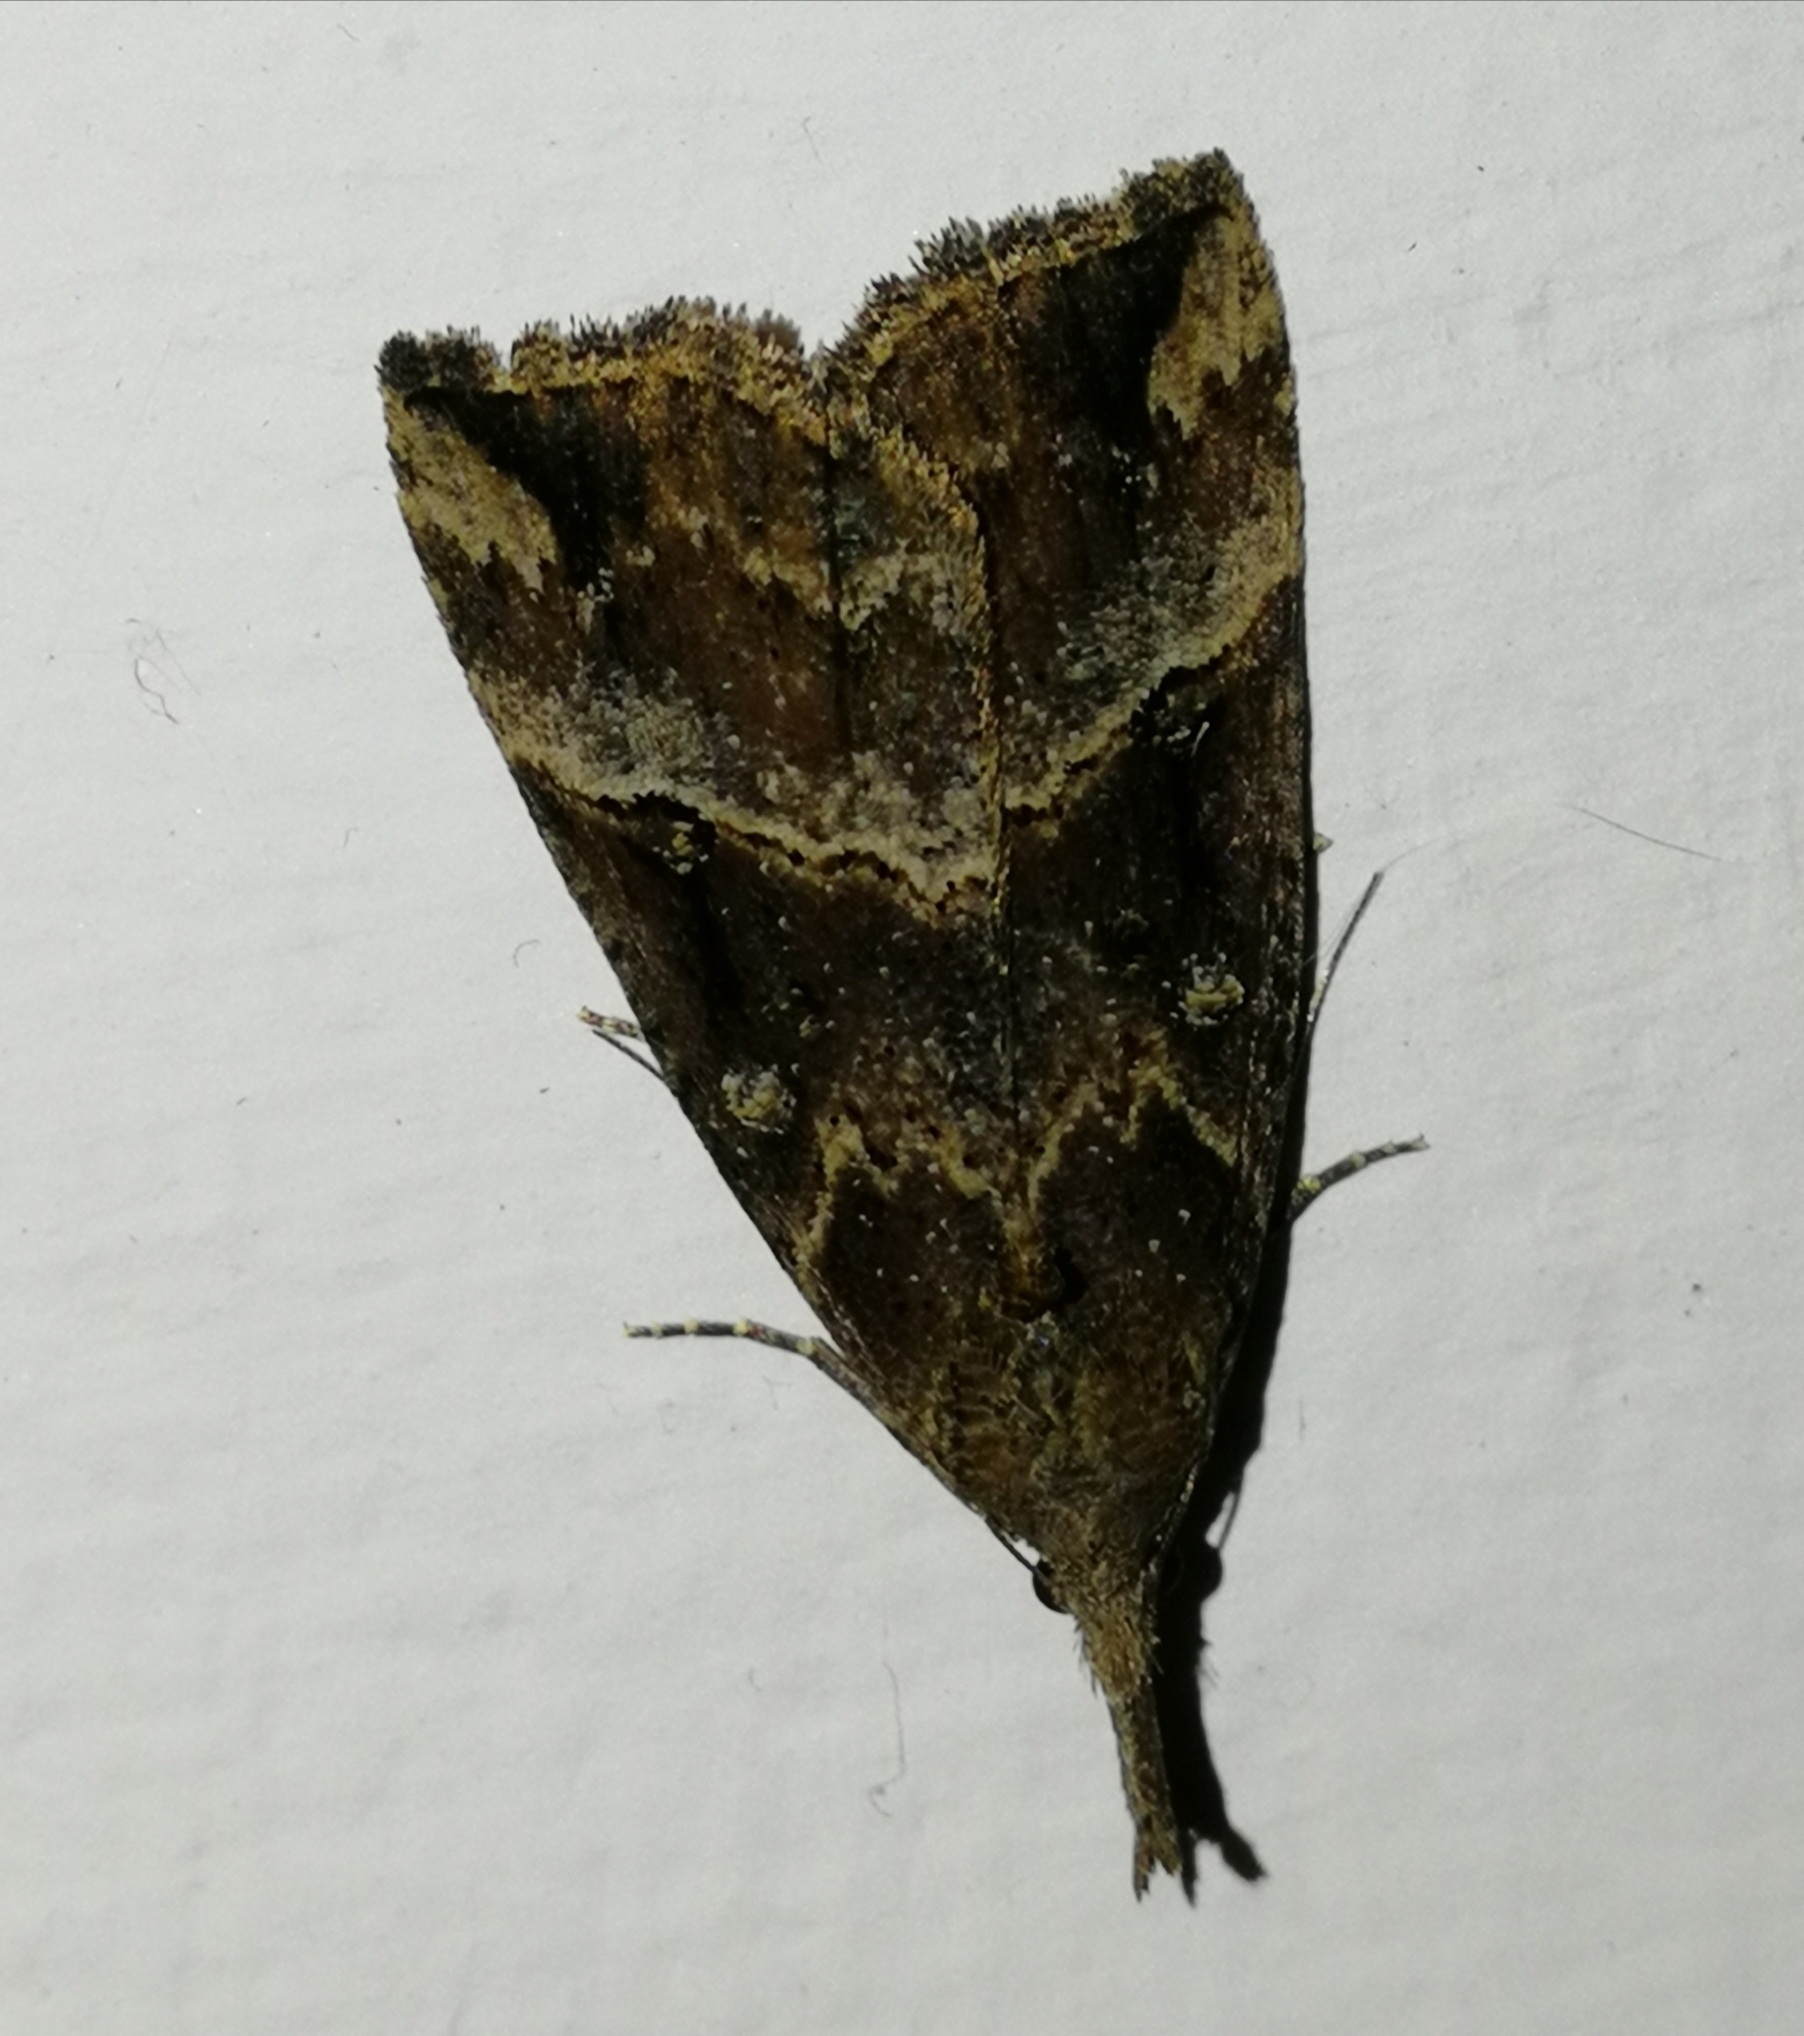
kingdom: Animalia
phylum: Arthropoda
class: Insecta
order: Lepidoptera
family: Erebidae
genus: Hypena
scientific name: Hypena rostralis
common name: Buttoned snout
